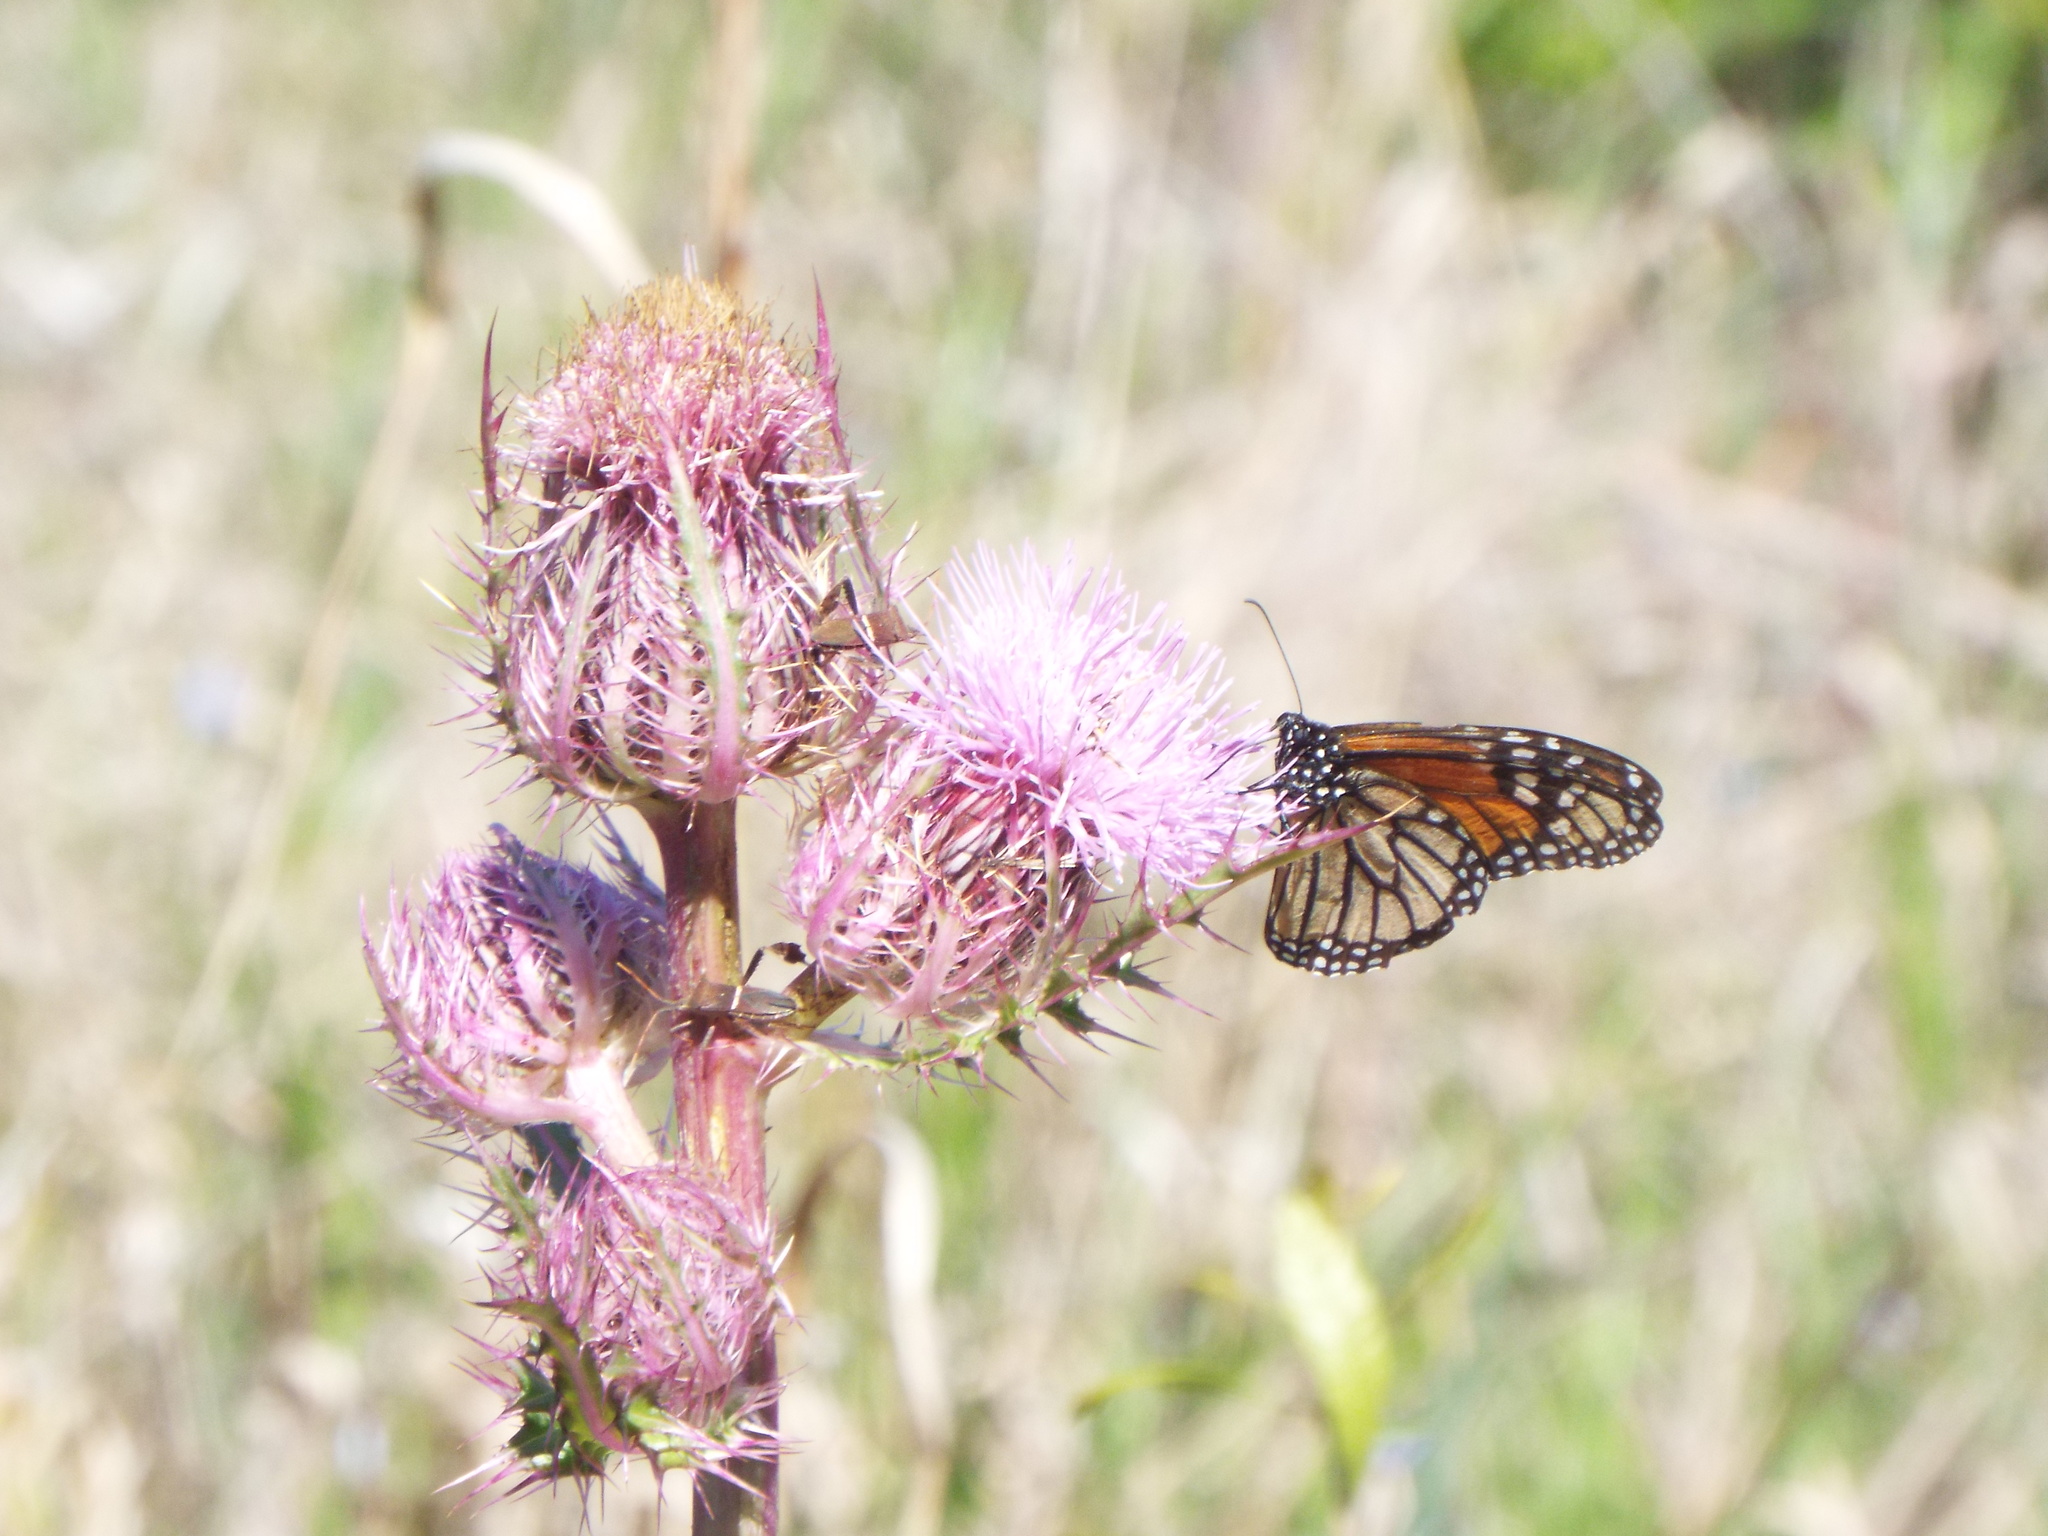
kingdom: Plantae
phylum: Tracheophyta
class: Magnoliopsida
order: Asterales
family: Asteraceae
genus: Cirsium
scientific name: Cirsium horridulum
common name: Bristly thistle
